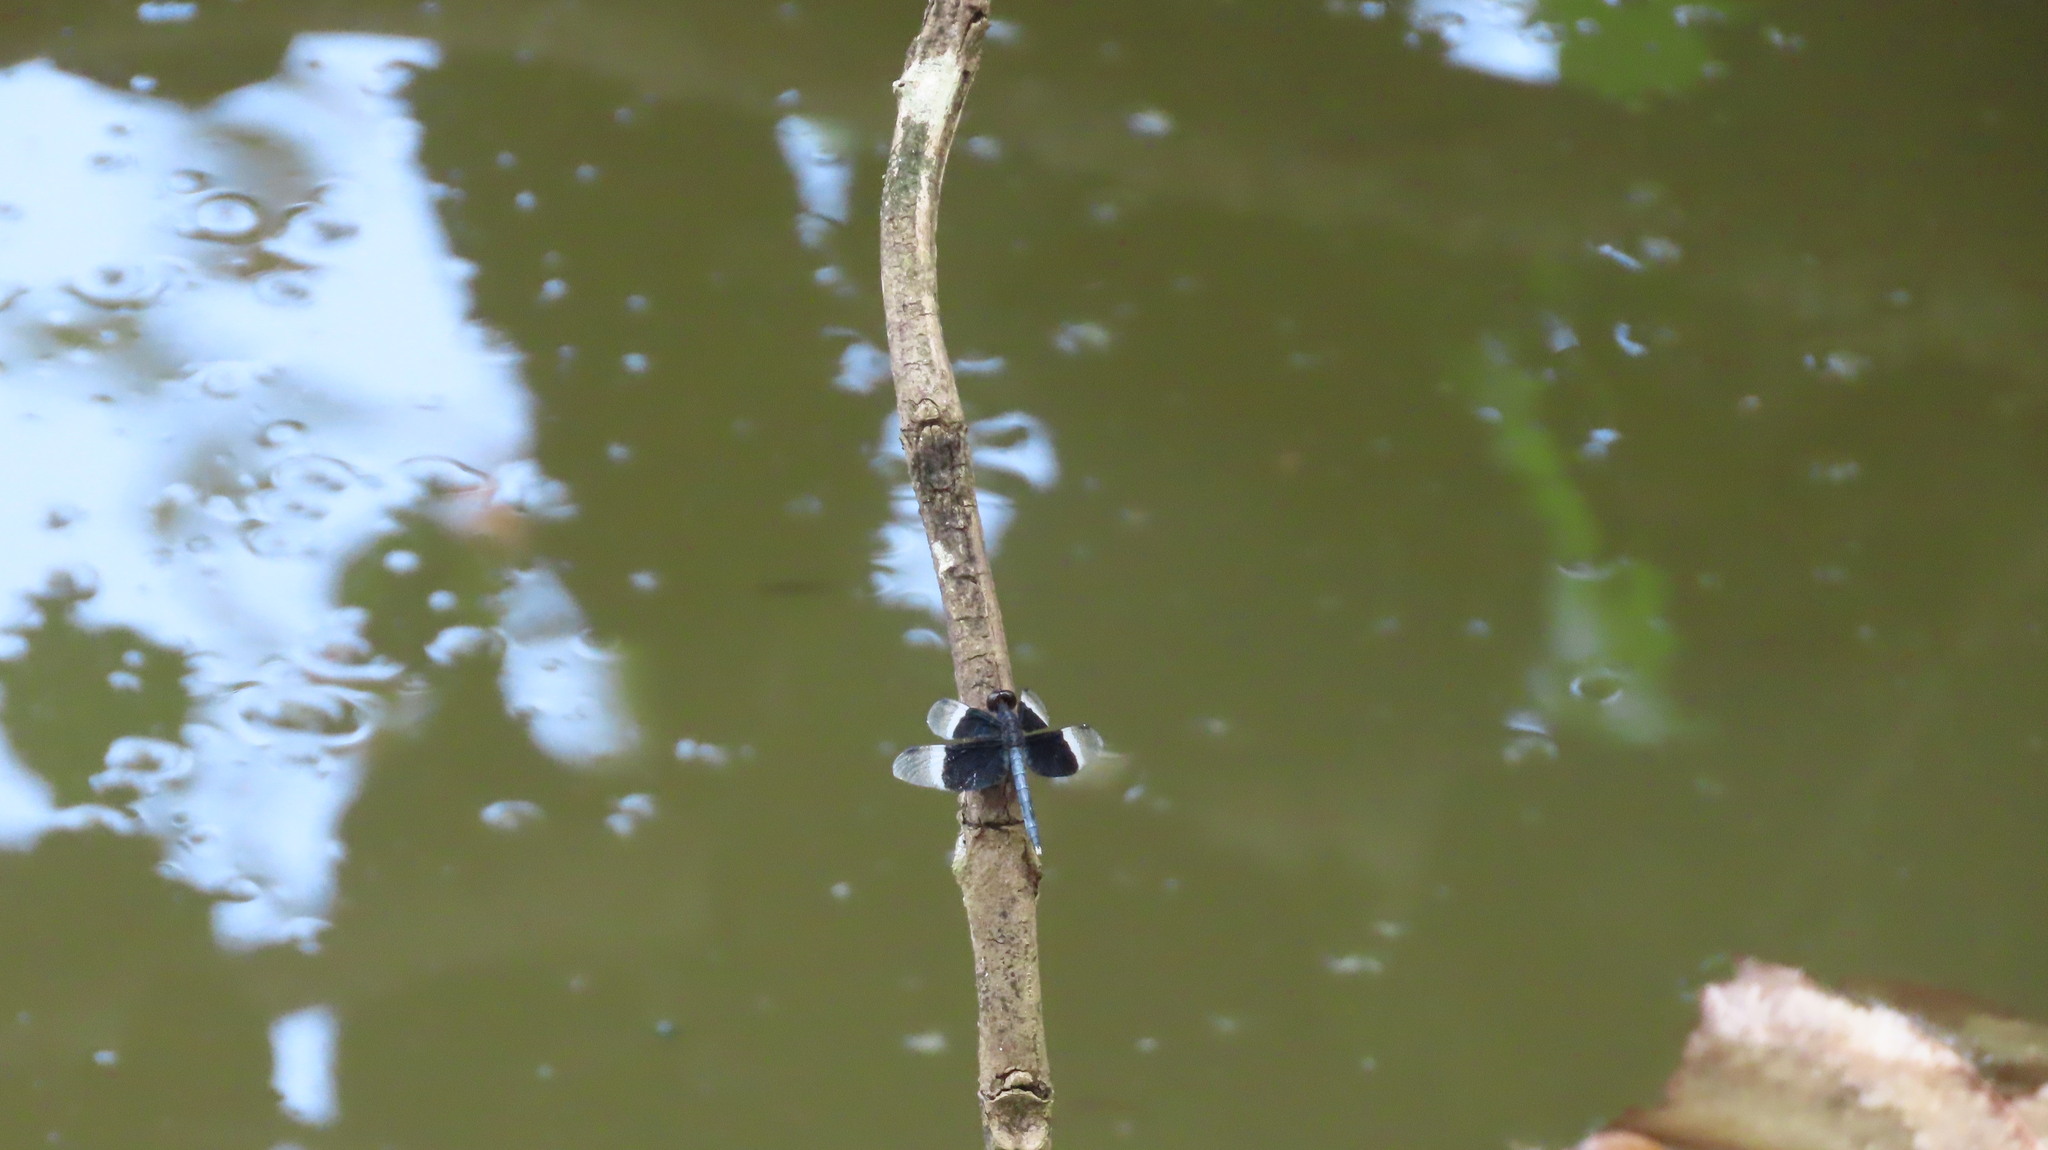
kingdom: Animalia
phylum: Arthropoda
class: Insecta
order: Odonata
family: Libellulidae
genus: Neurothemis
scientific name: Neurothemis tullia
